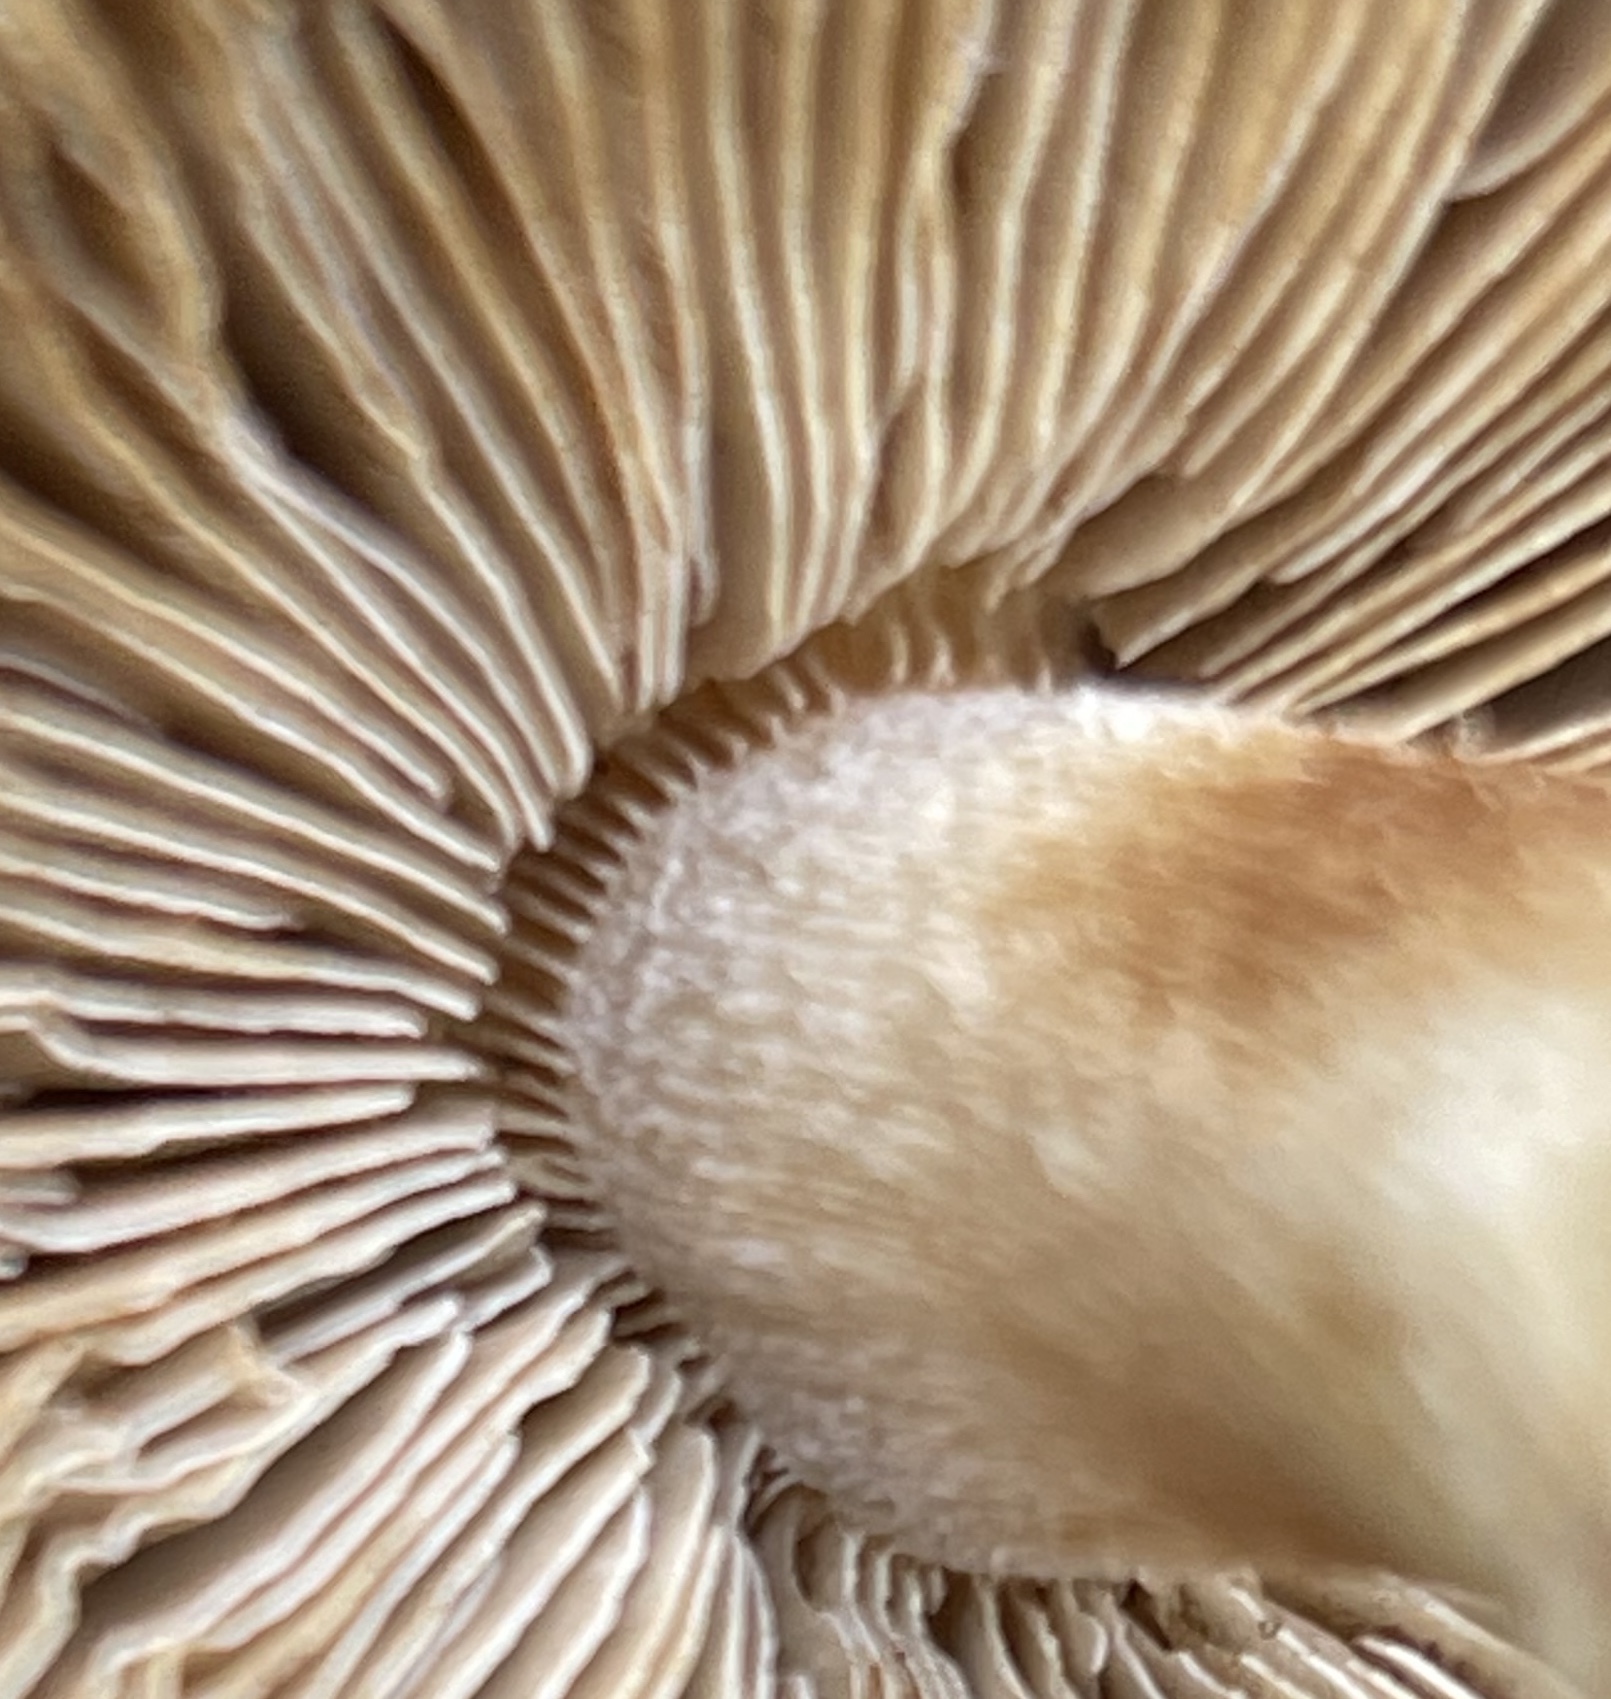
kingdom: Fungi
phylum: Basidiomycota
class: Agaricomycetes
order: Agaricales
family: Inocybaceae
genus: Pseudosperma
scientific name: Pseudosperma sororium
